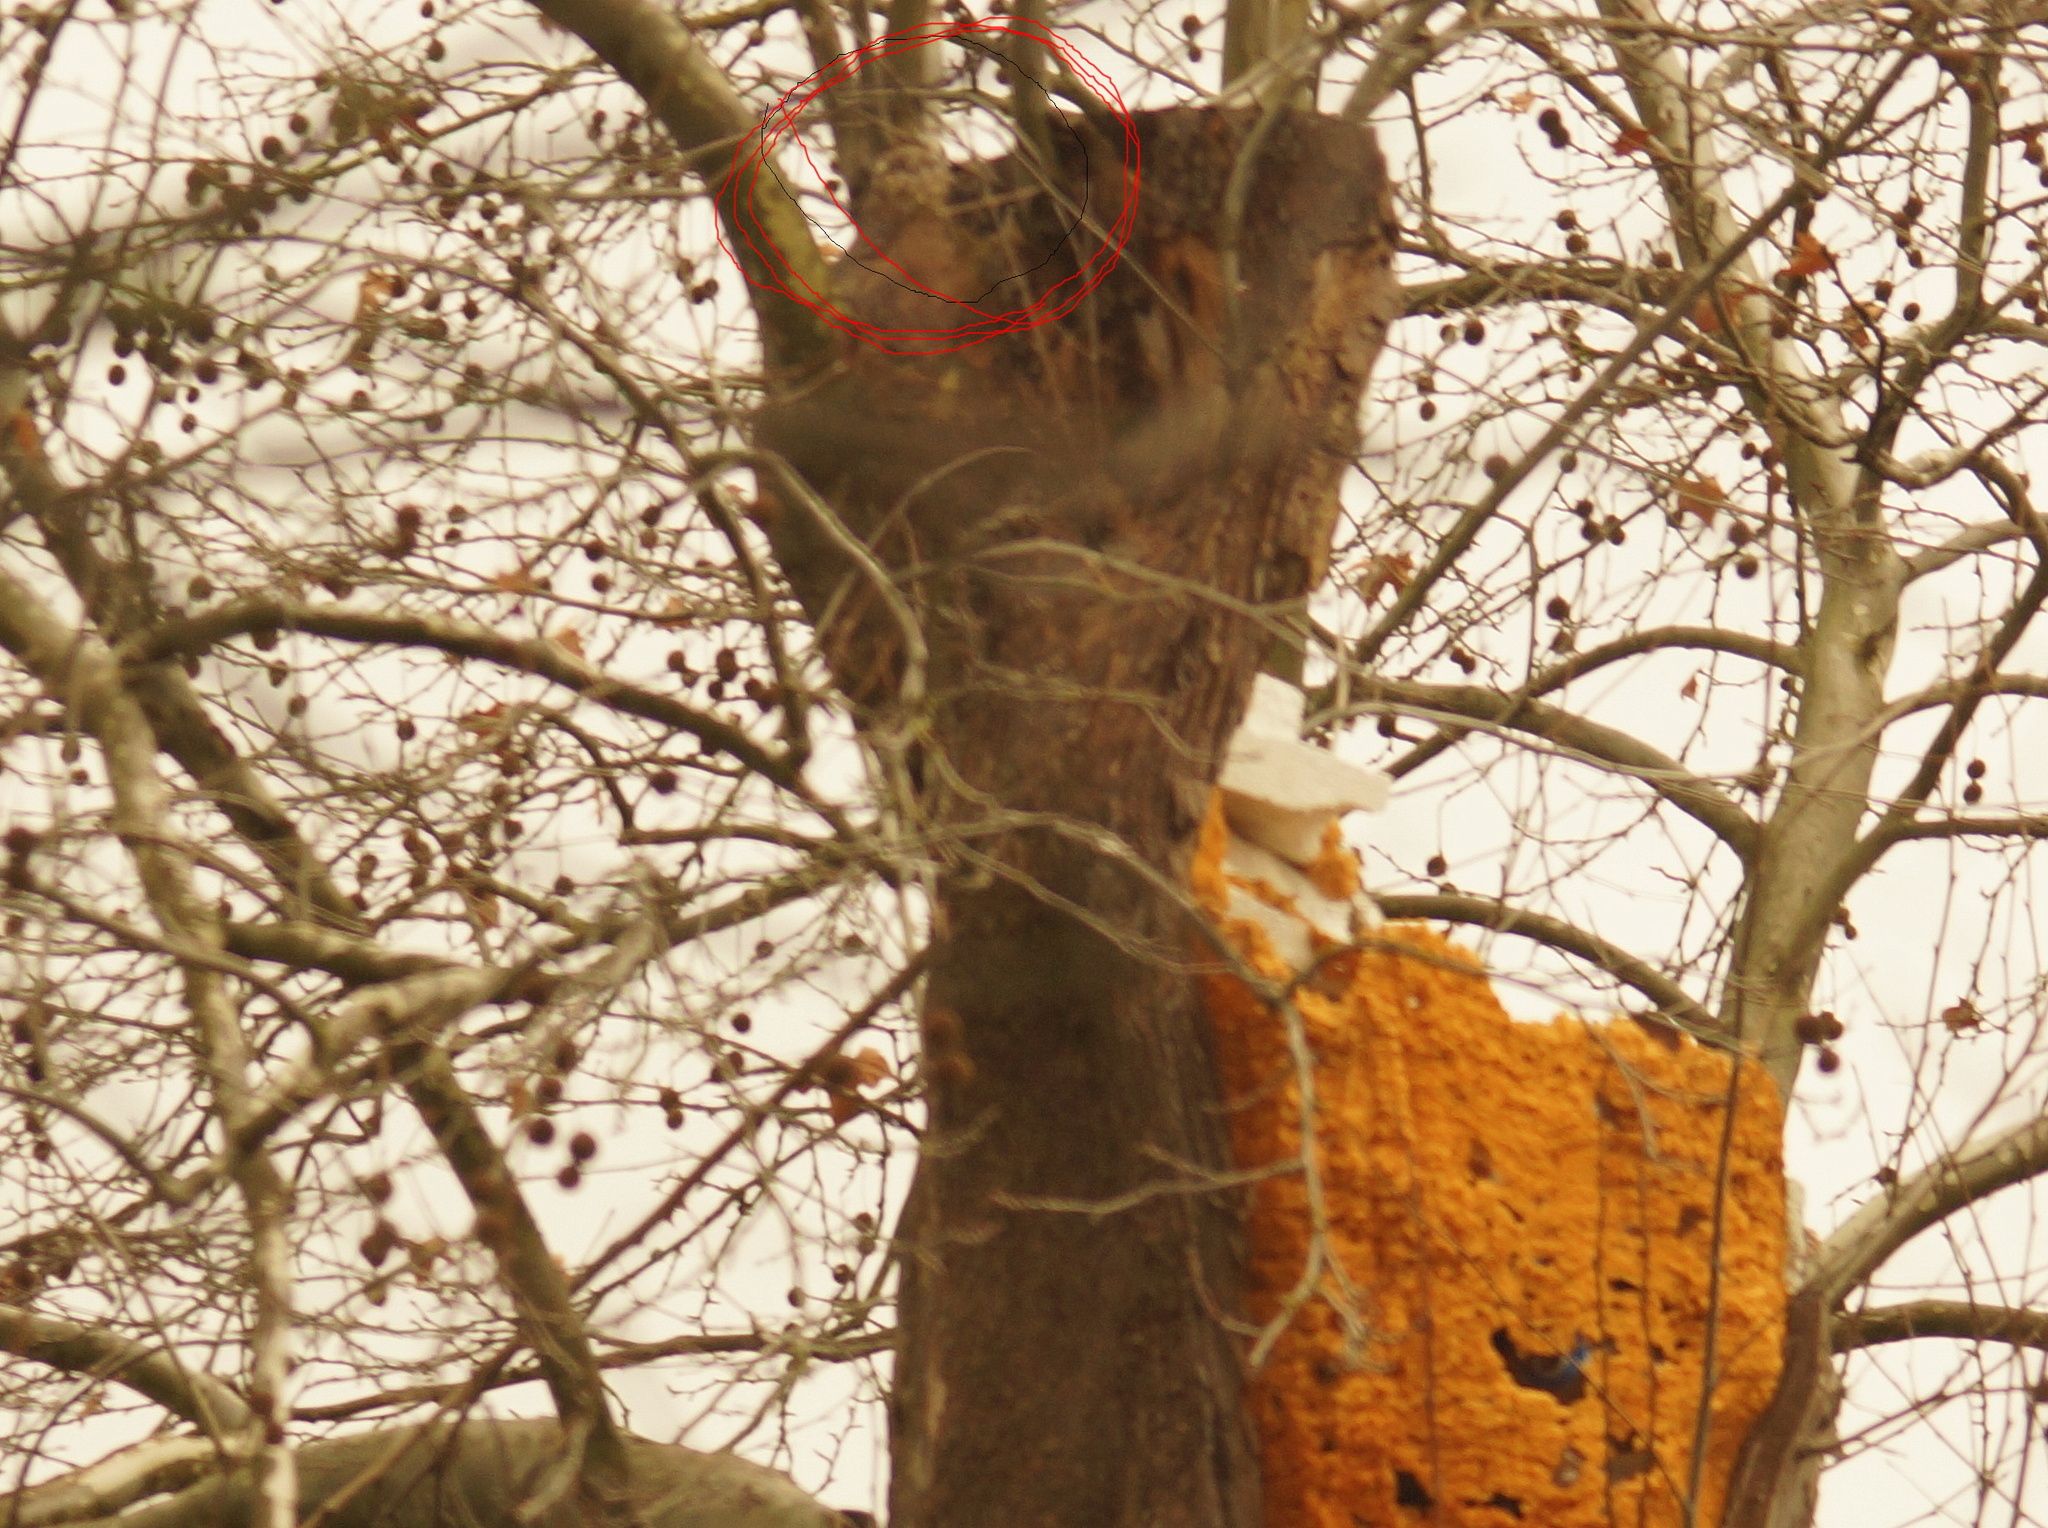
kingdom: Animalia
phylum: Chordata
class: Aves
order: Strigiformes
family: Strigidae
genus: Strix
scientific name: Strix aluco
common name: Tawny owl
